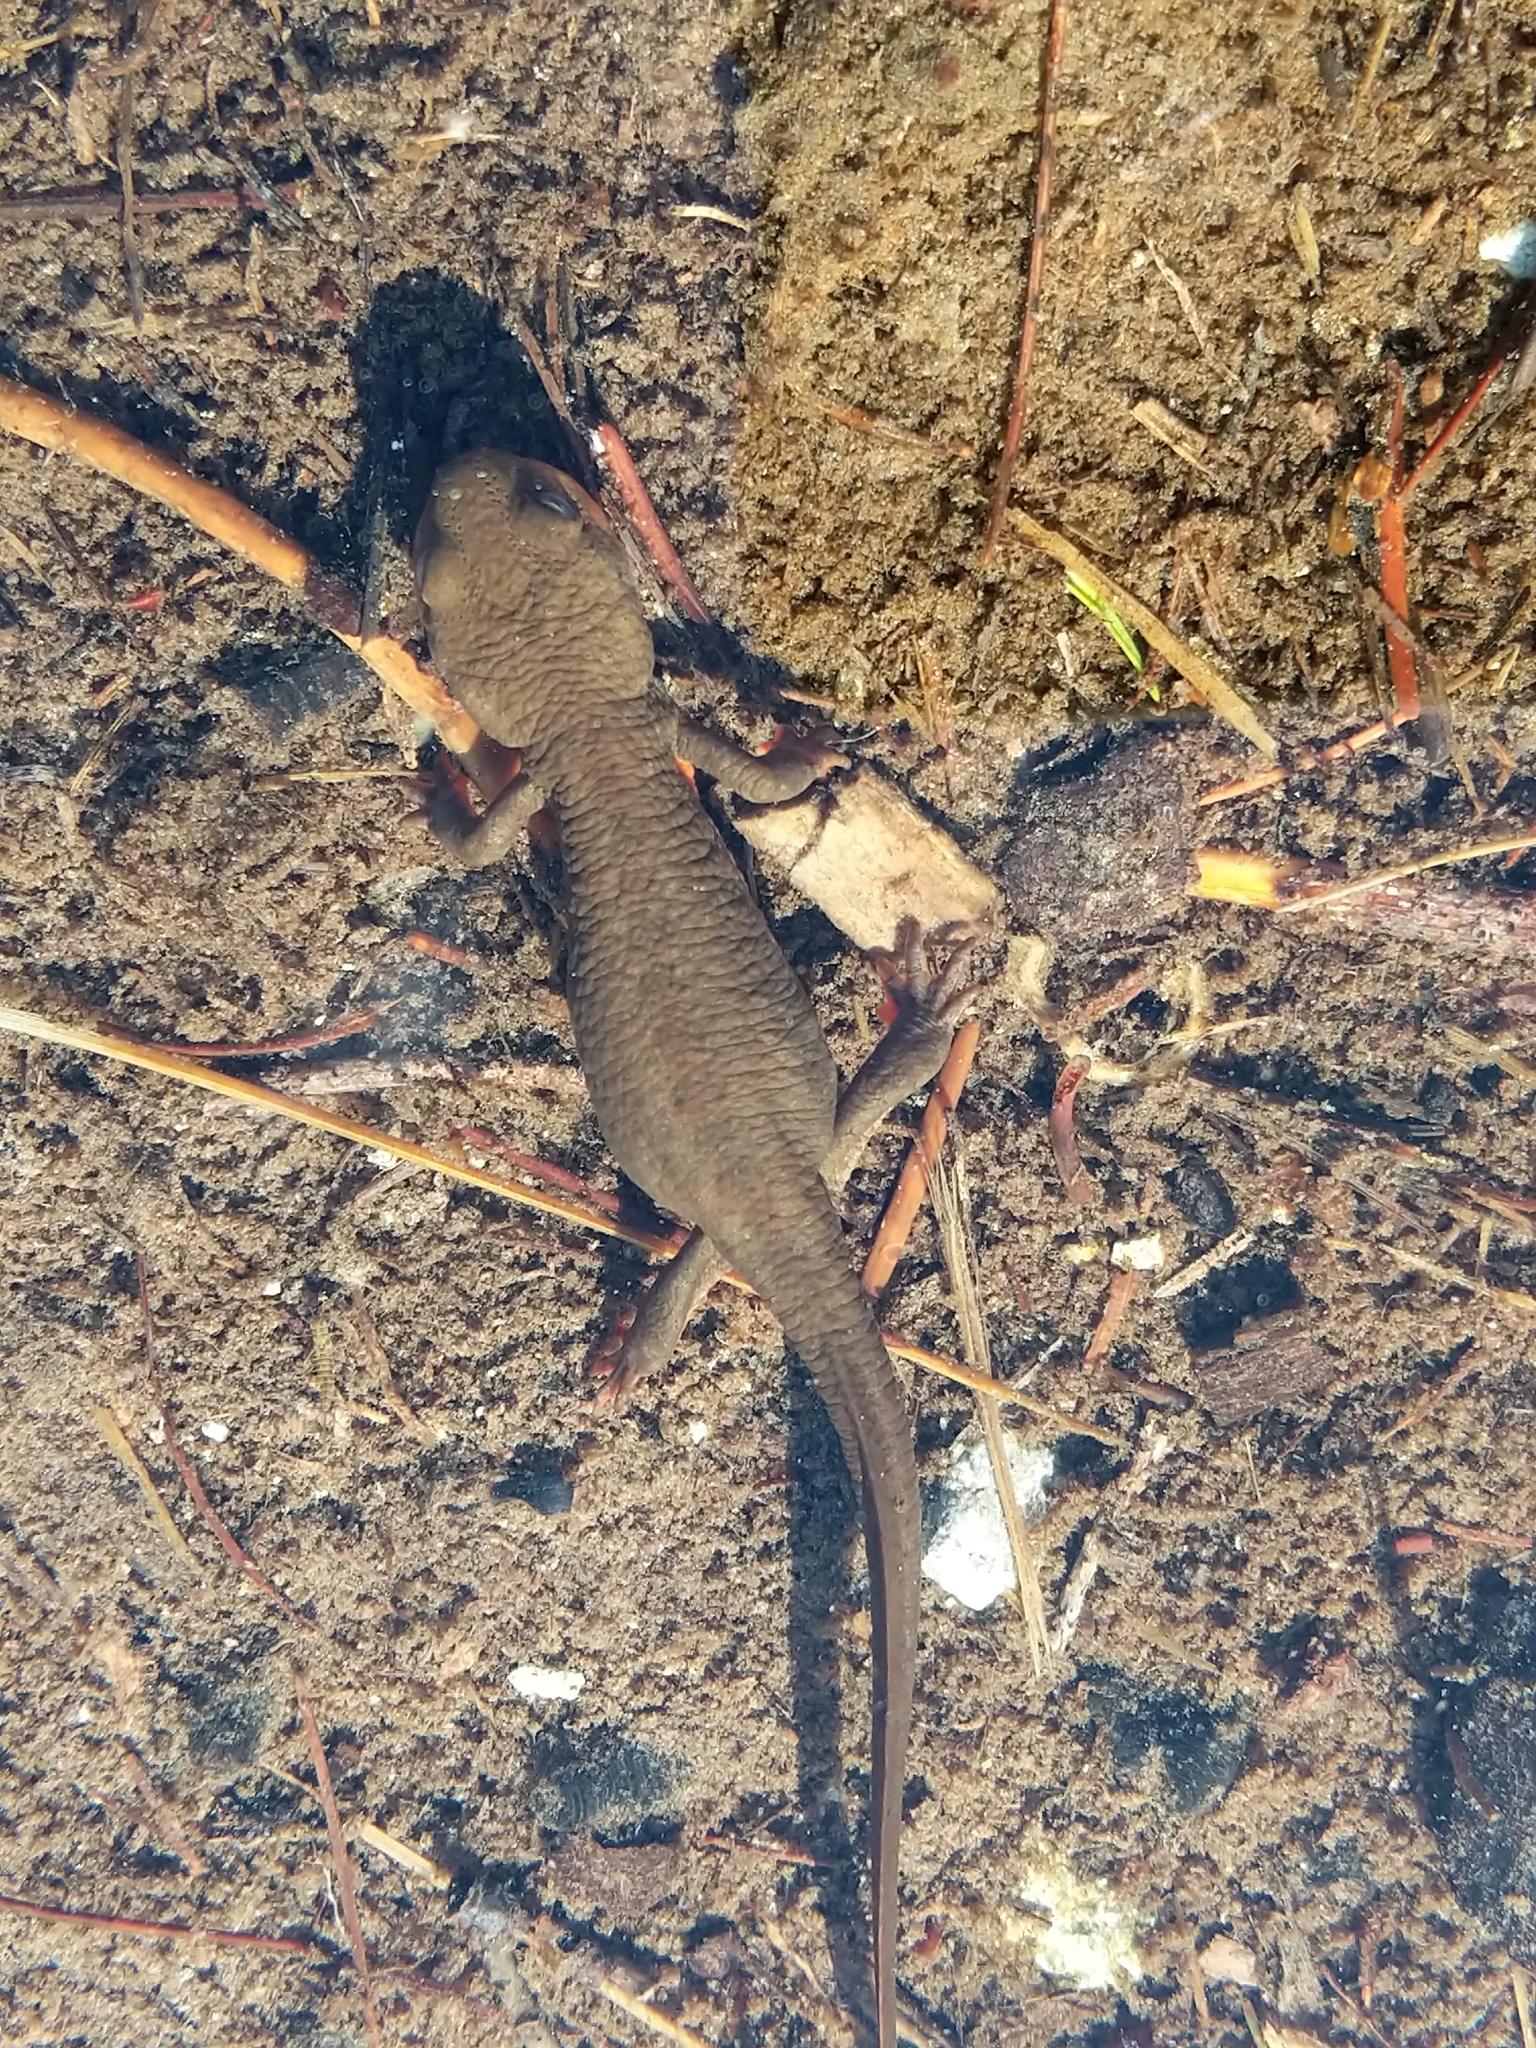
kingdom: Animalia
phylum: Chordata
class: Amphibia
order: Caudata
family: Salamandridae
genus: Taricha
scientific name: Taricha granulosa
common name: Roughskin newt
